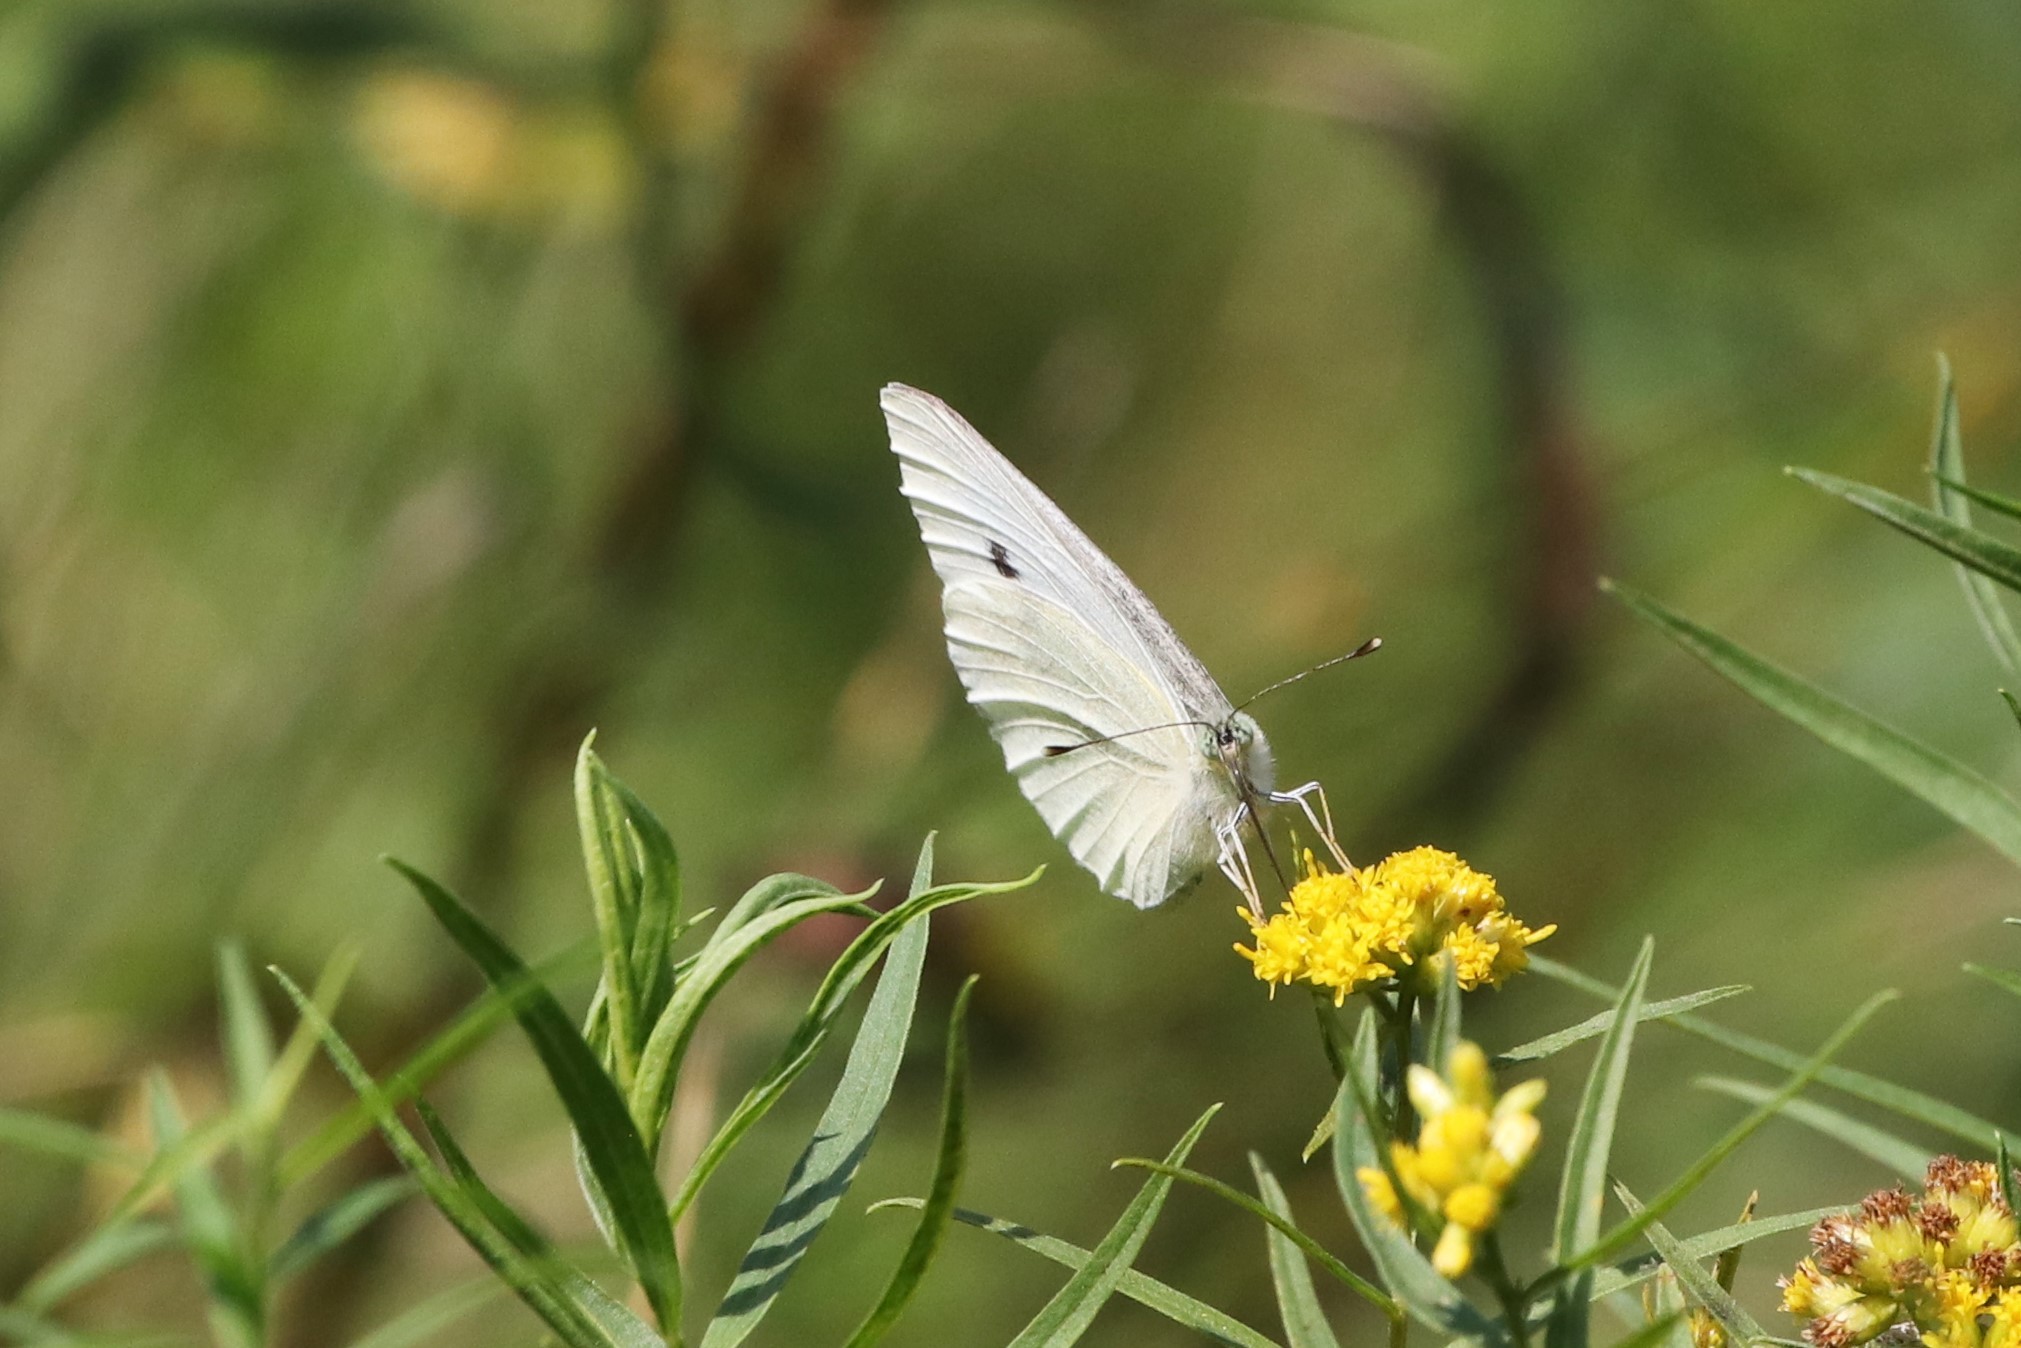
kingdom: Animalia
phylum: Arthropoda
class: Insecta
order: Lepidoptera
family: Pieridae
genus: Pieris
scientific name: Pieris rapae
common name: Small white
